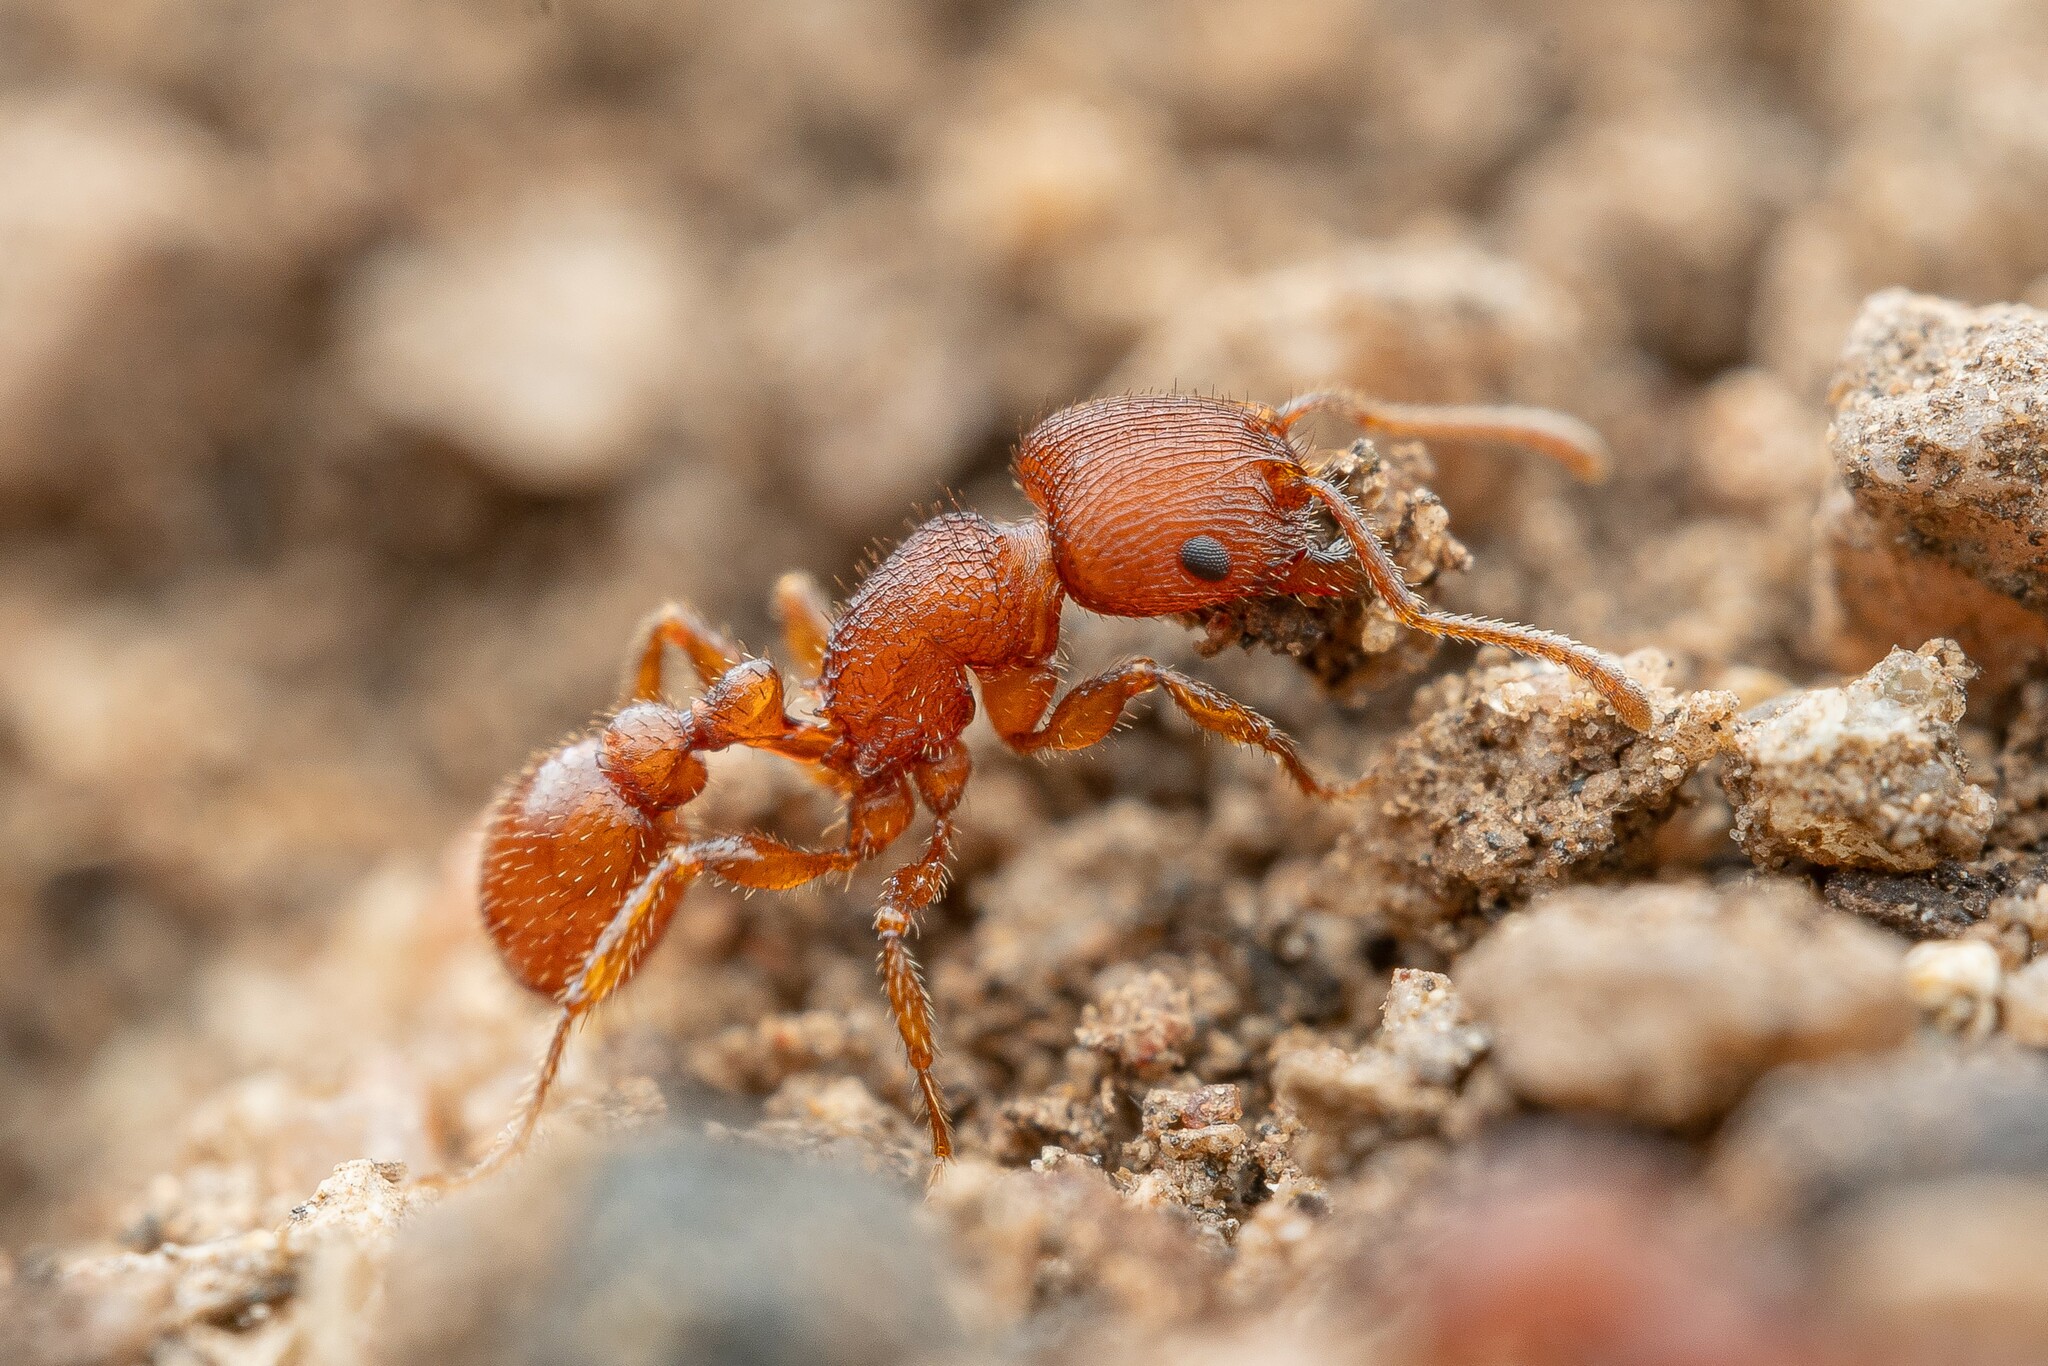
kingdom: Animalia
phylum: Arthropoda
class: Insecta
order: Hymenoptera
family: Formicidae
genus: Pogonomyrmex
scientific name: Pogonomyrmex pima
